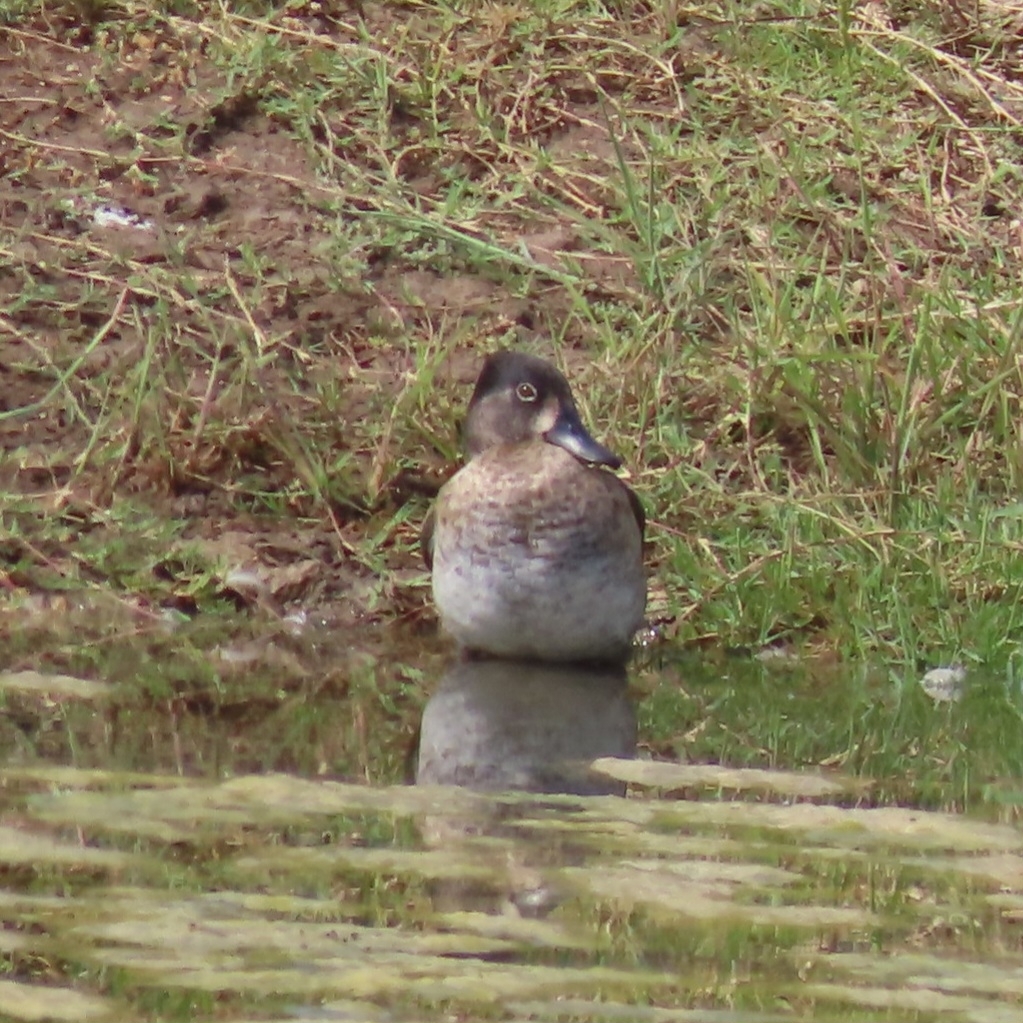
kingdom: Animalia
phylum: Chordata
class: Aves
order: Anseriformes
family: Anatidae
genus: Aythya
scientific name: Aythya collaris
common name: Ring-necked duck
